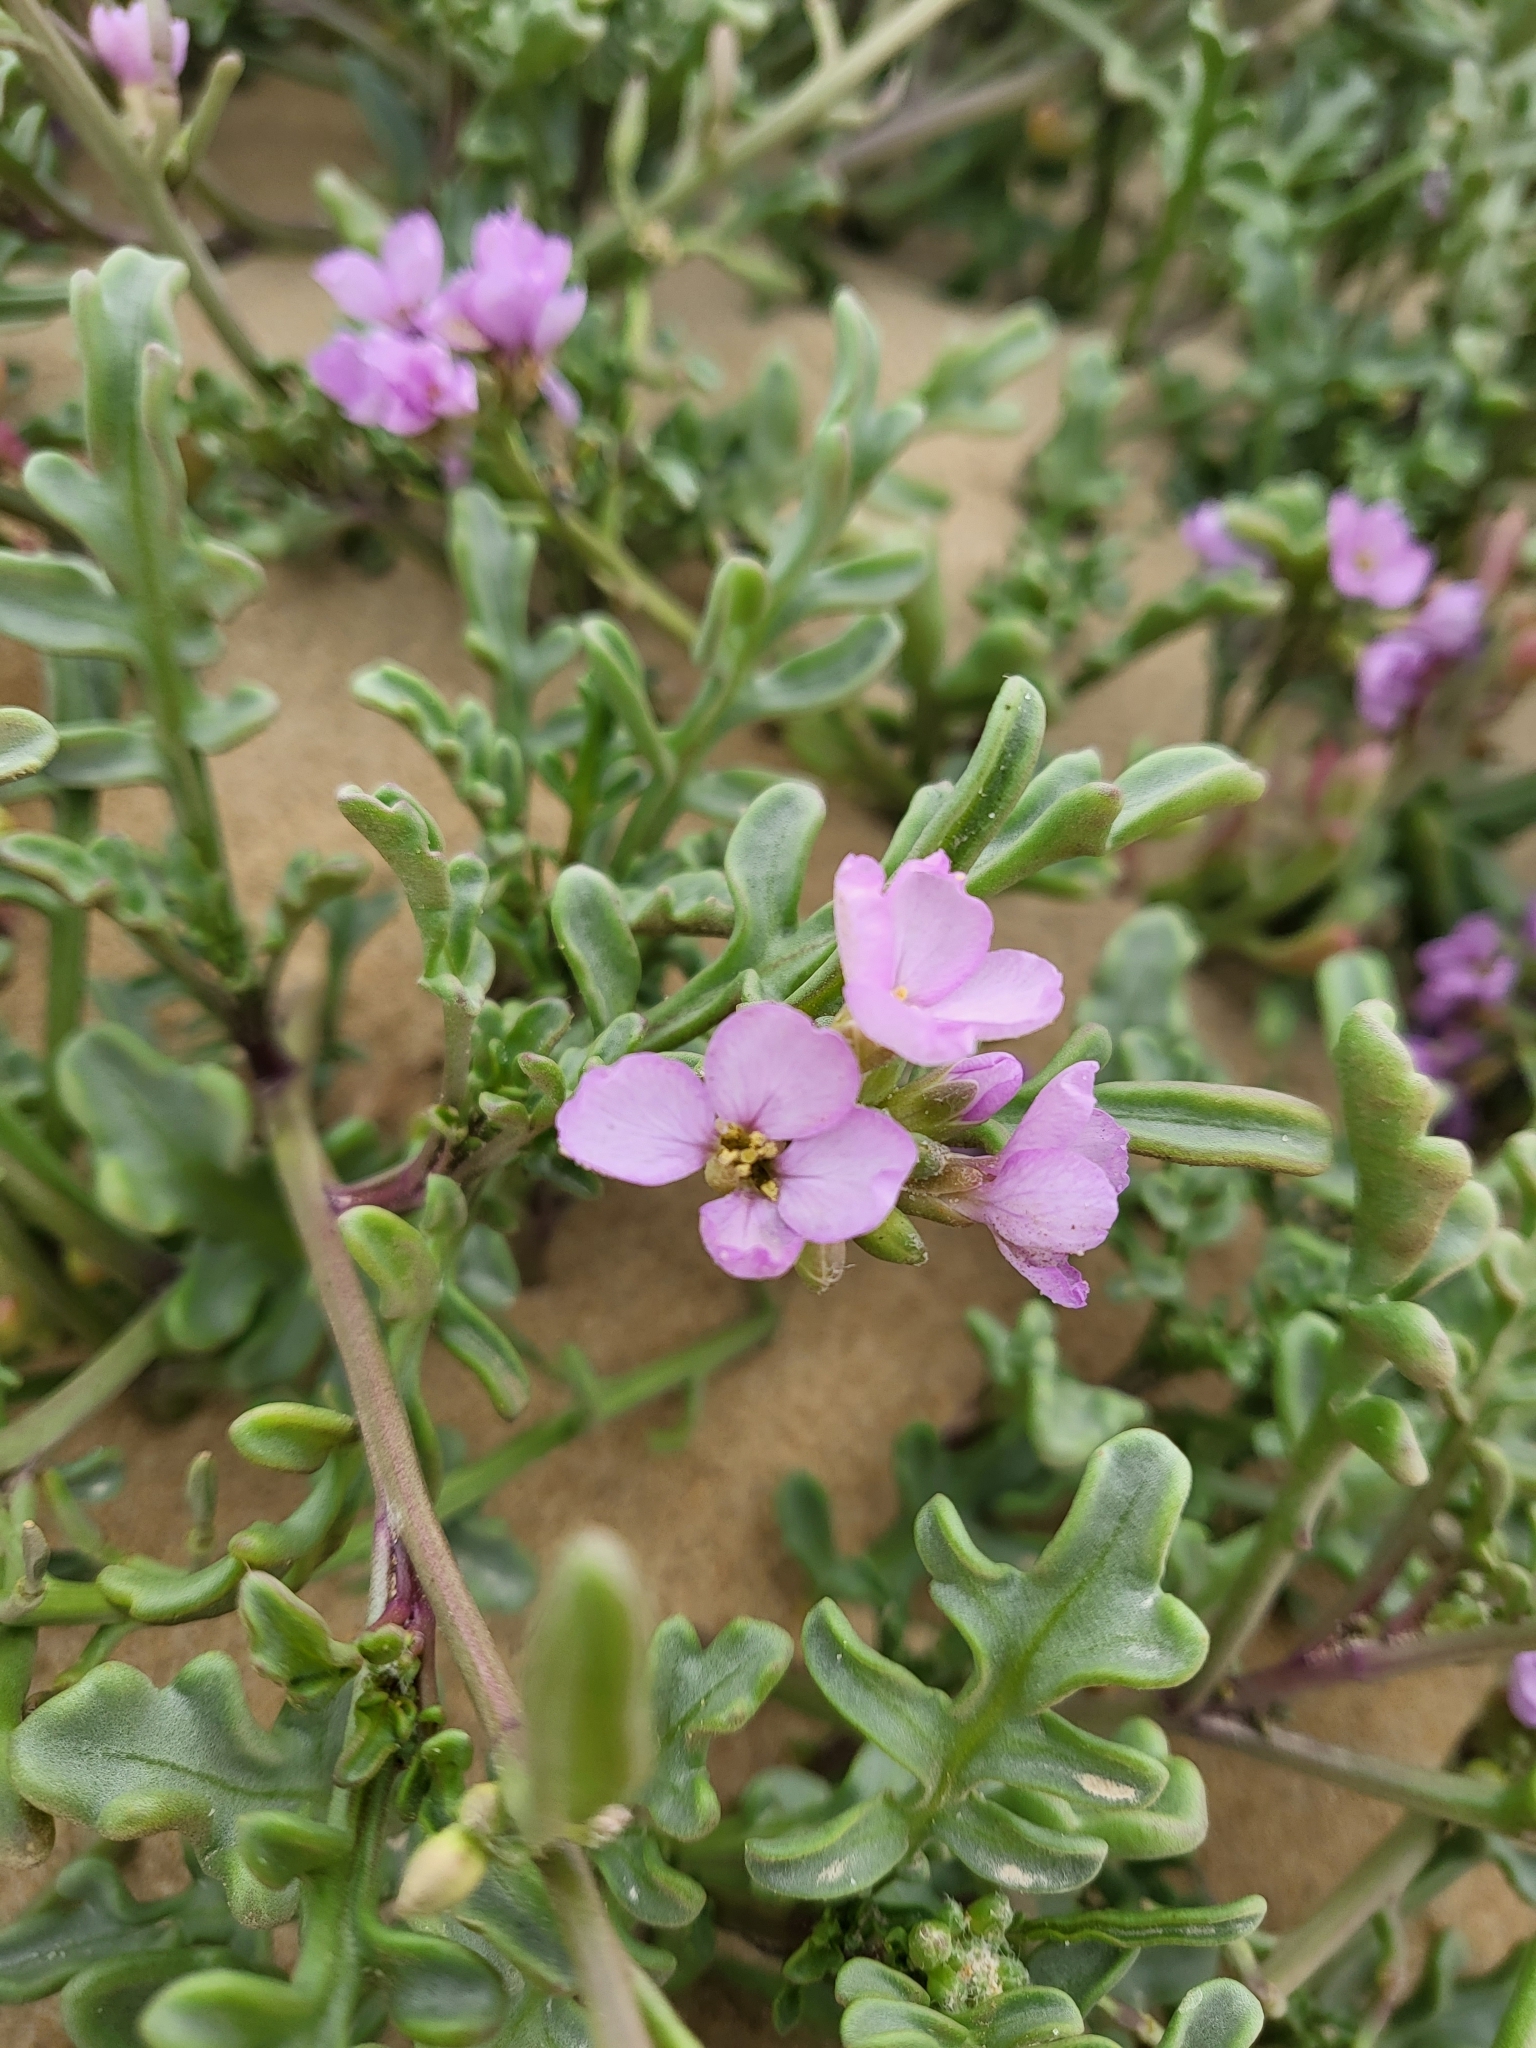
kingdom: Plantae
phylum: Tracheophyta
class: Magnoliopsida
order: Brassicales
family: Brassicaceae
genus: Cakile
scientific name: Cakile maritima
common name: Sea rocket
